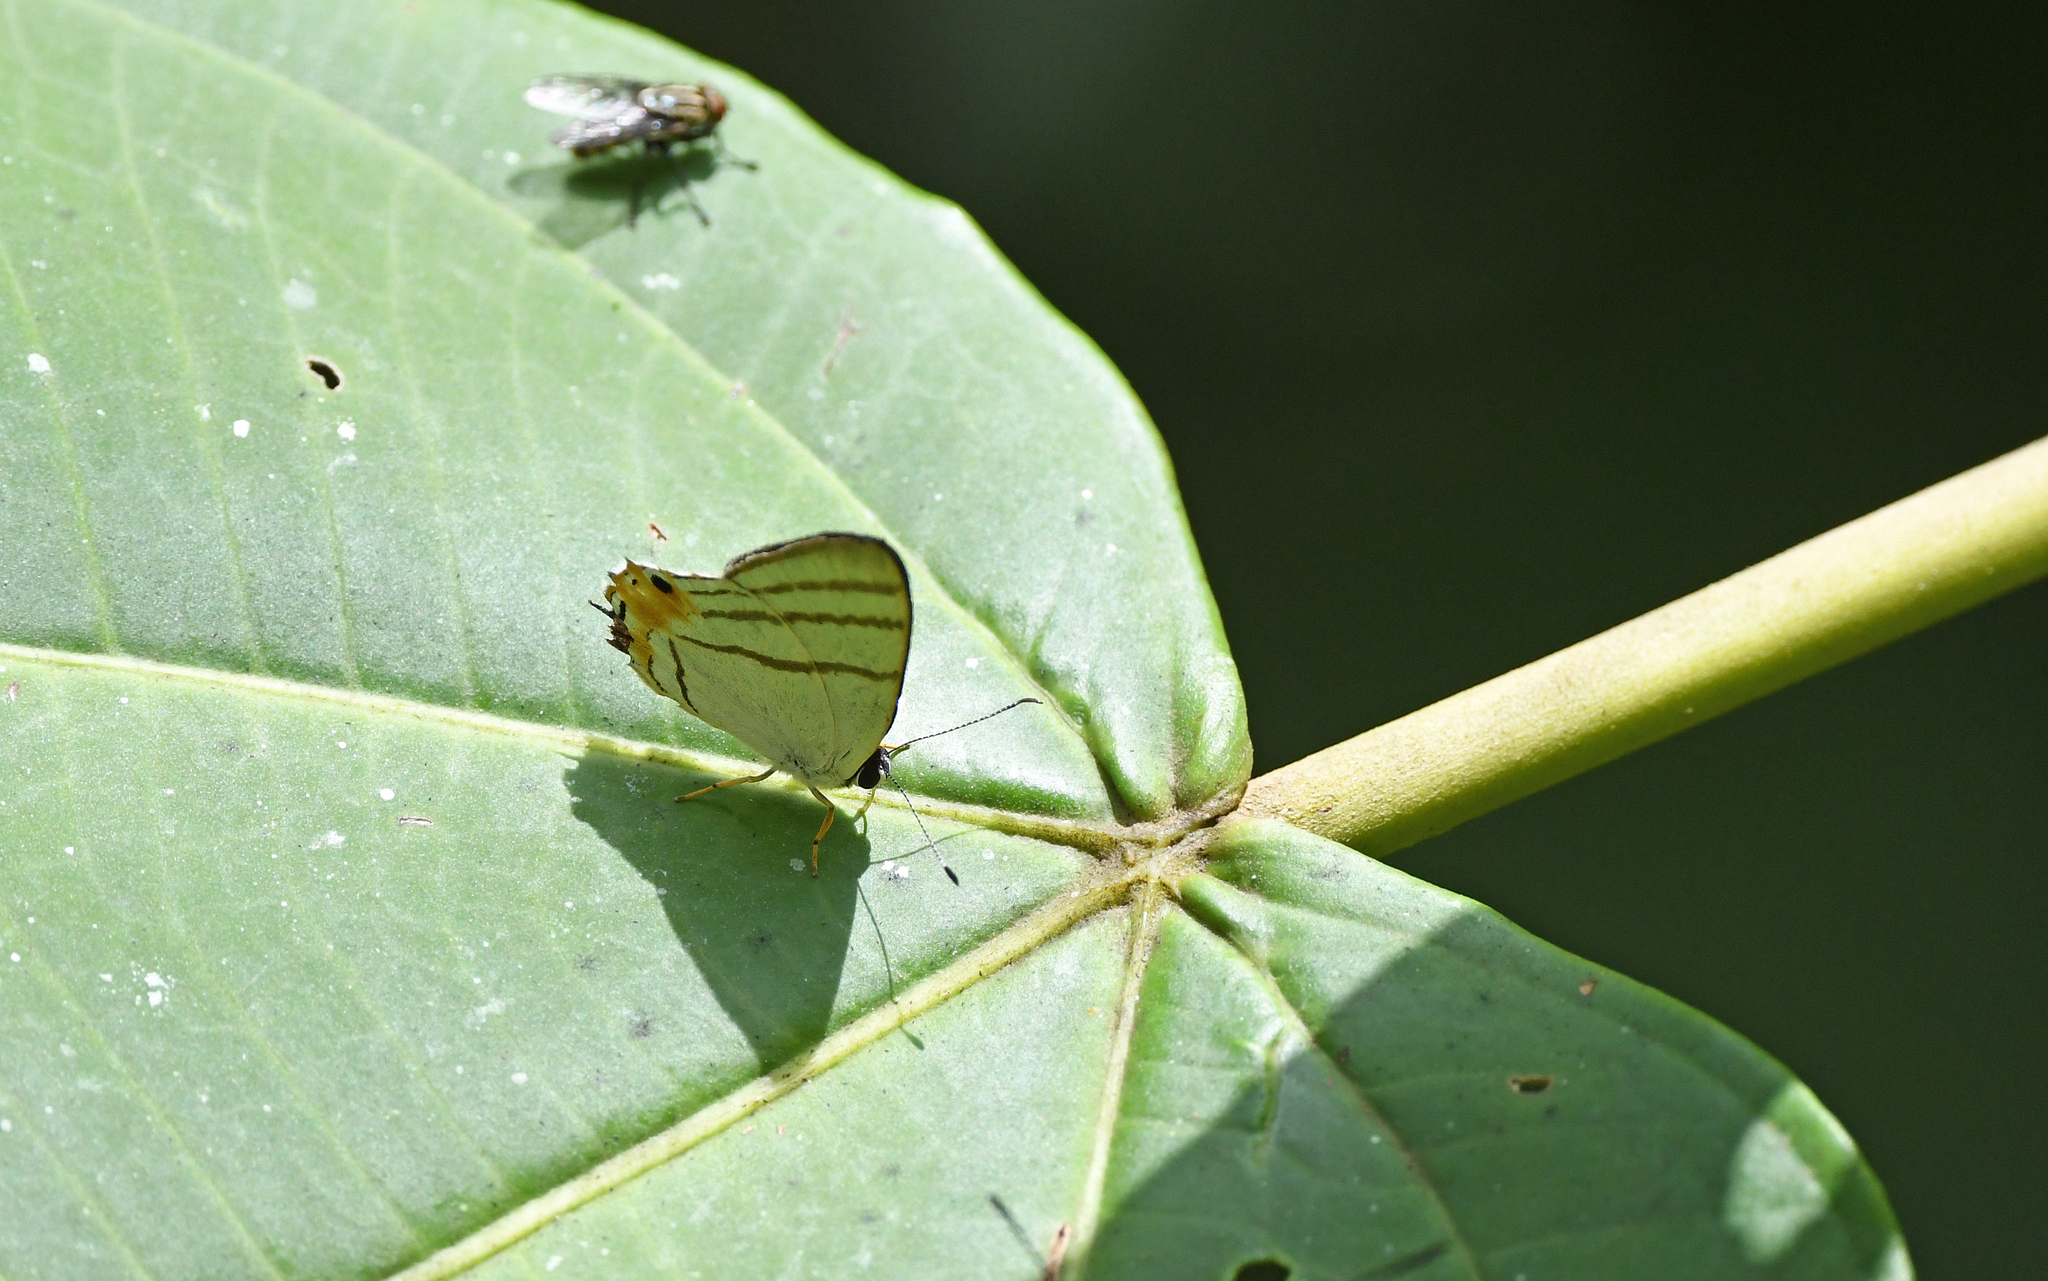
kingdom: Animalia
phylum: Arthropoda
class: Insecta
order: Lepidoptera
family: Lycaenidae
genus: Euselasia
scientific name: Euselasia corduena
